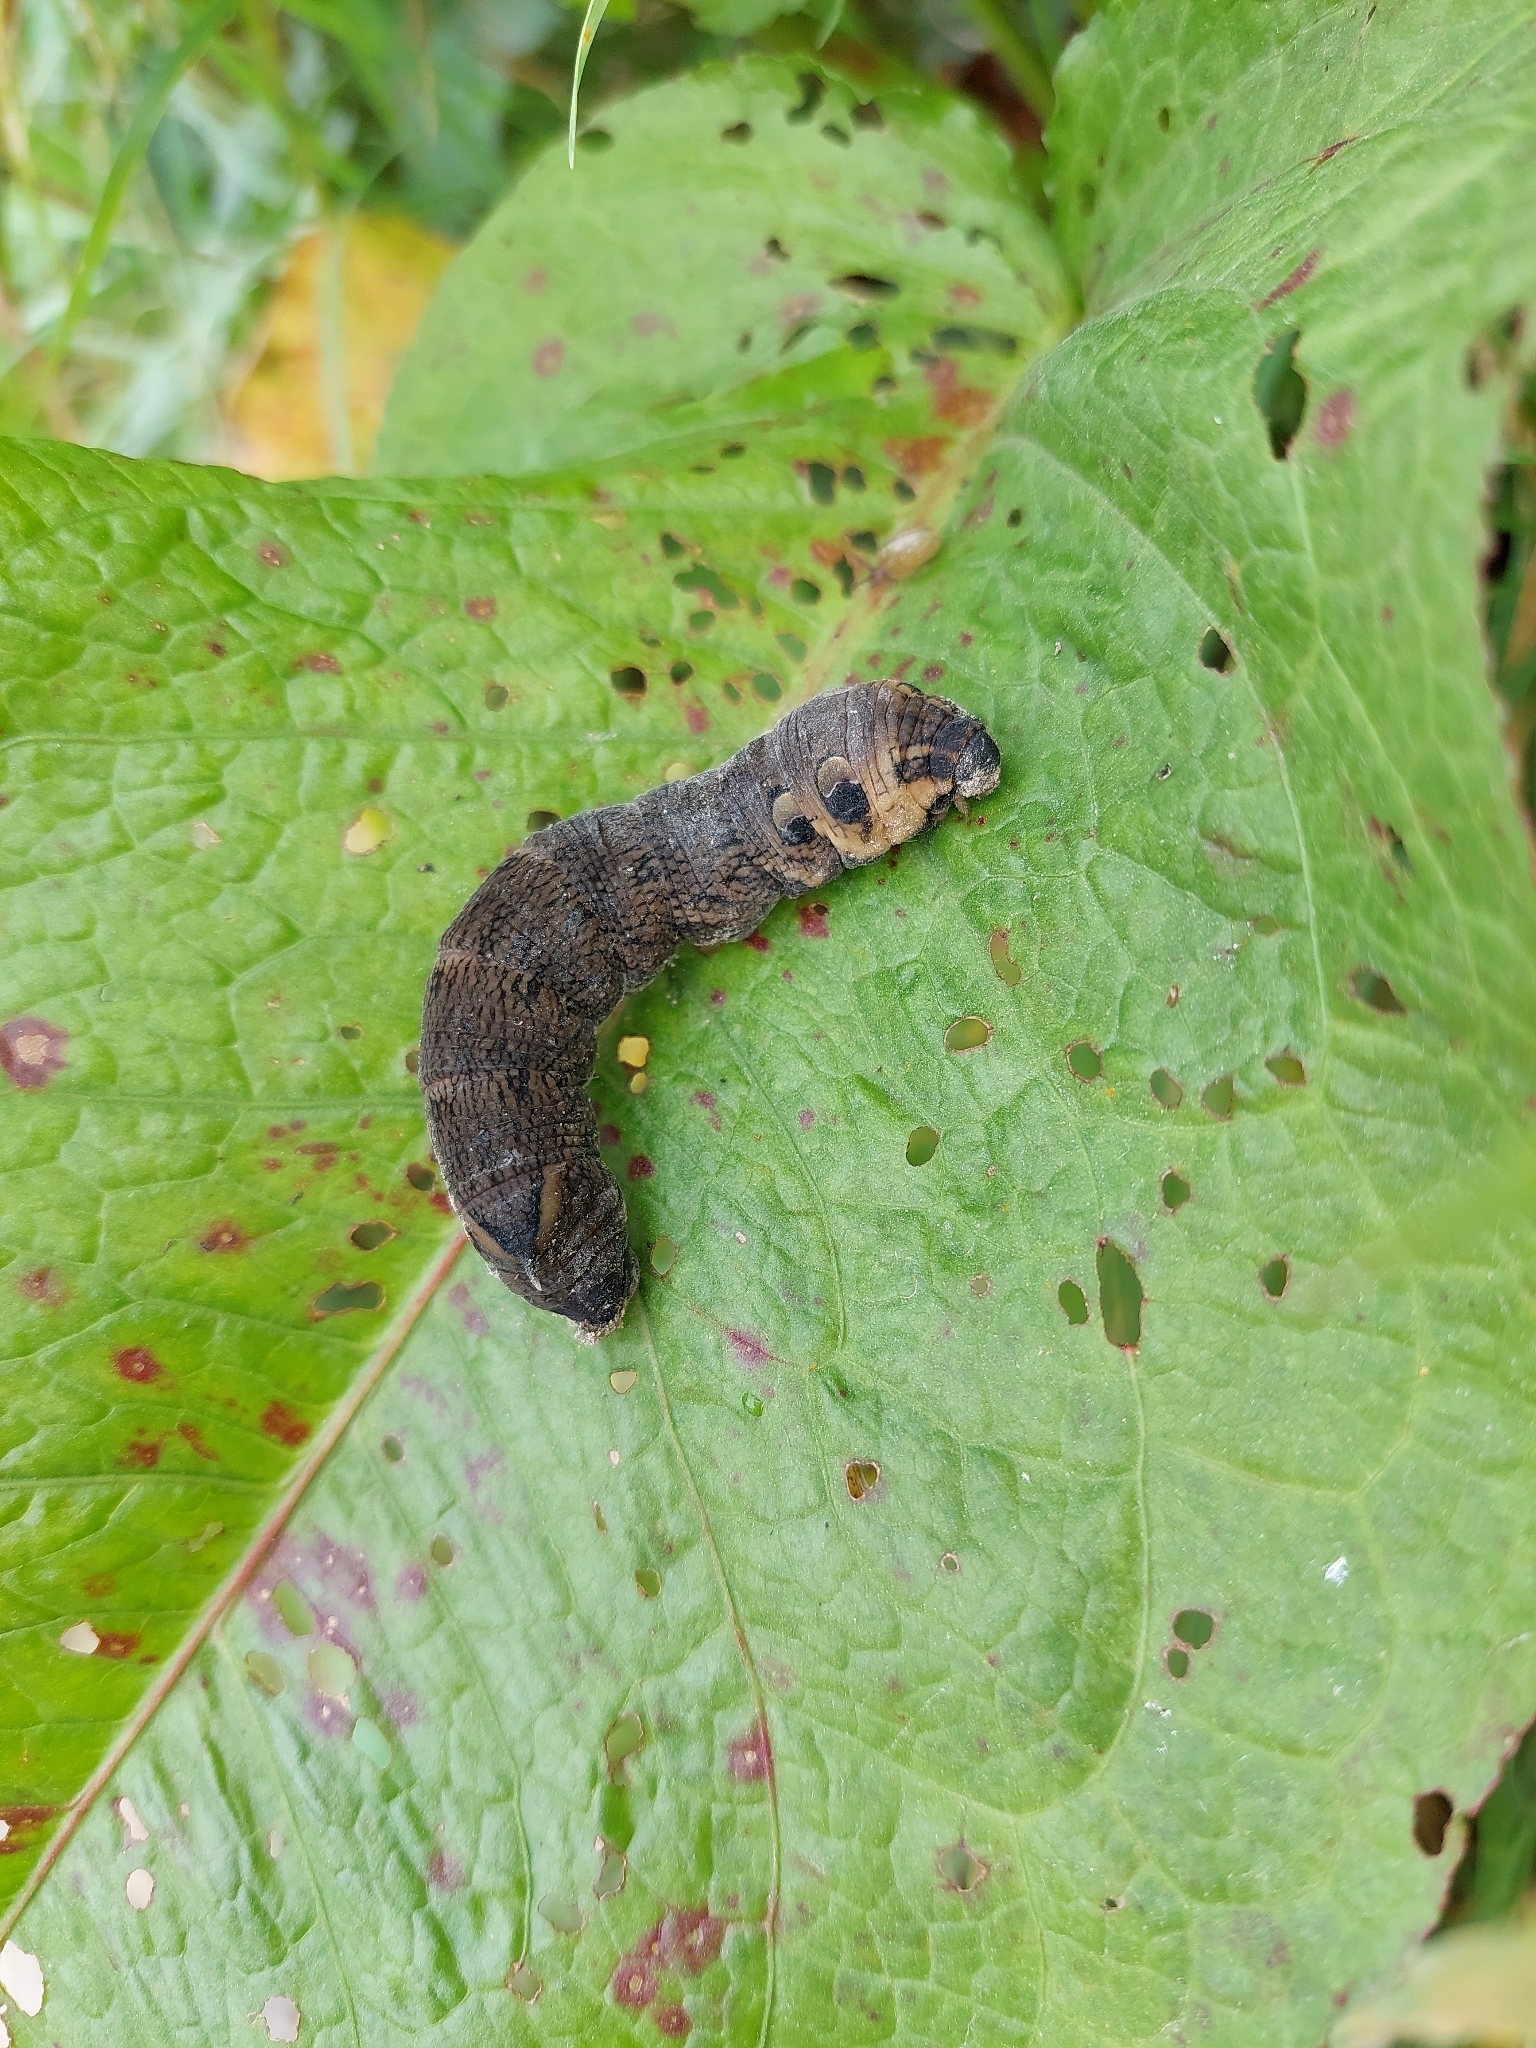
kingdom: Animalia
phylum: Arthropoda
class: Insecta
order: Lepidoptera
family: Sphingidae
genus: Deilephila
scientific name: Deilephila elpenor
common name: Elephant hawk-moth
